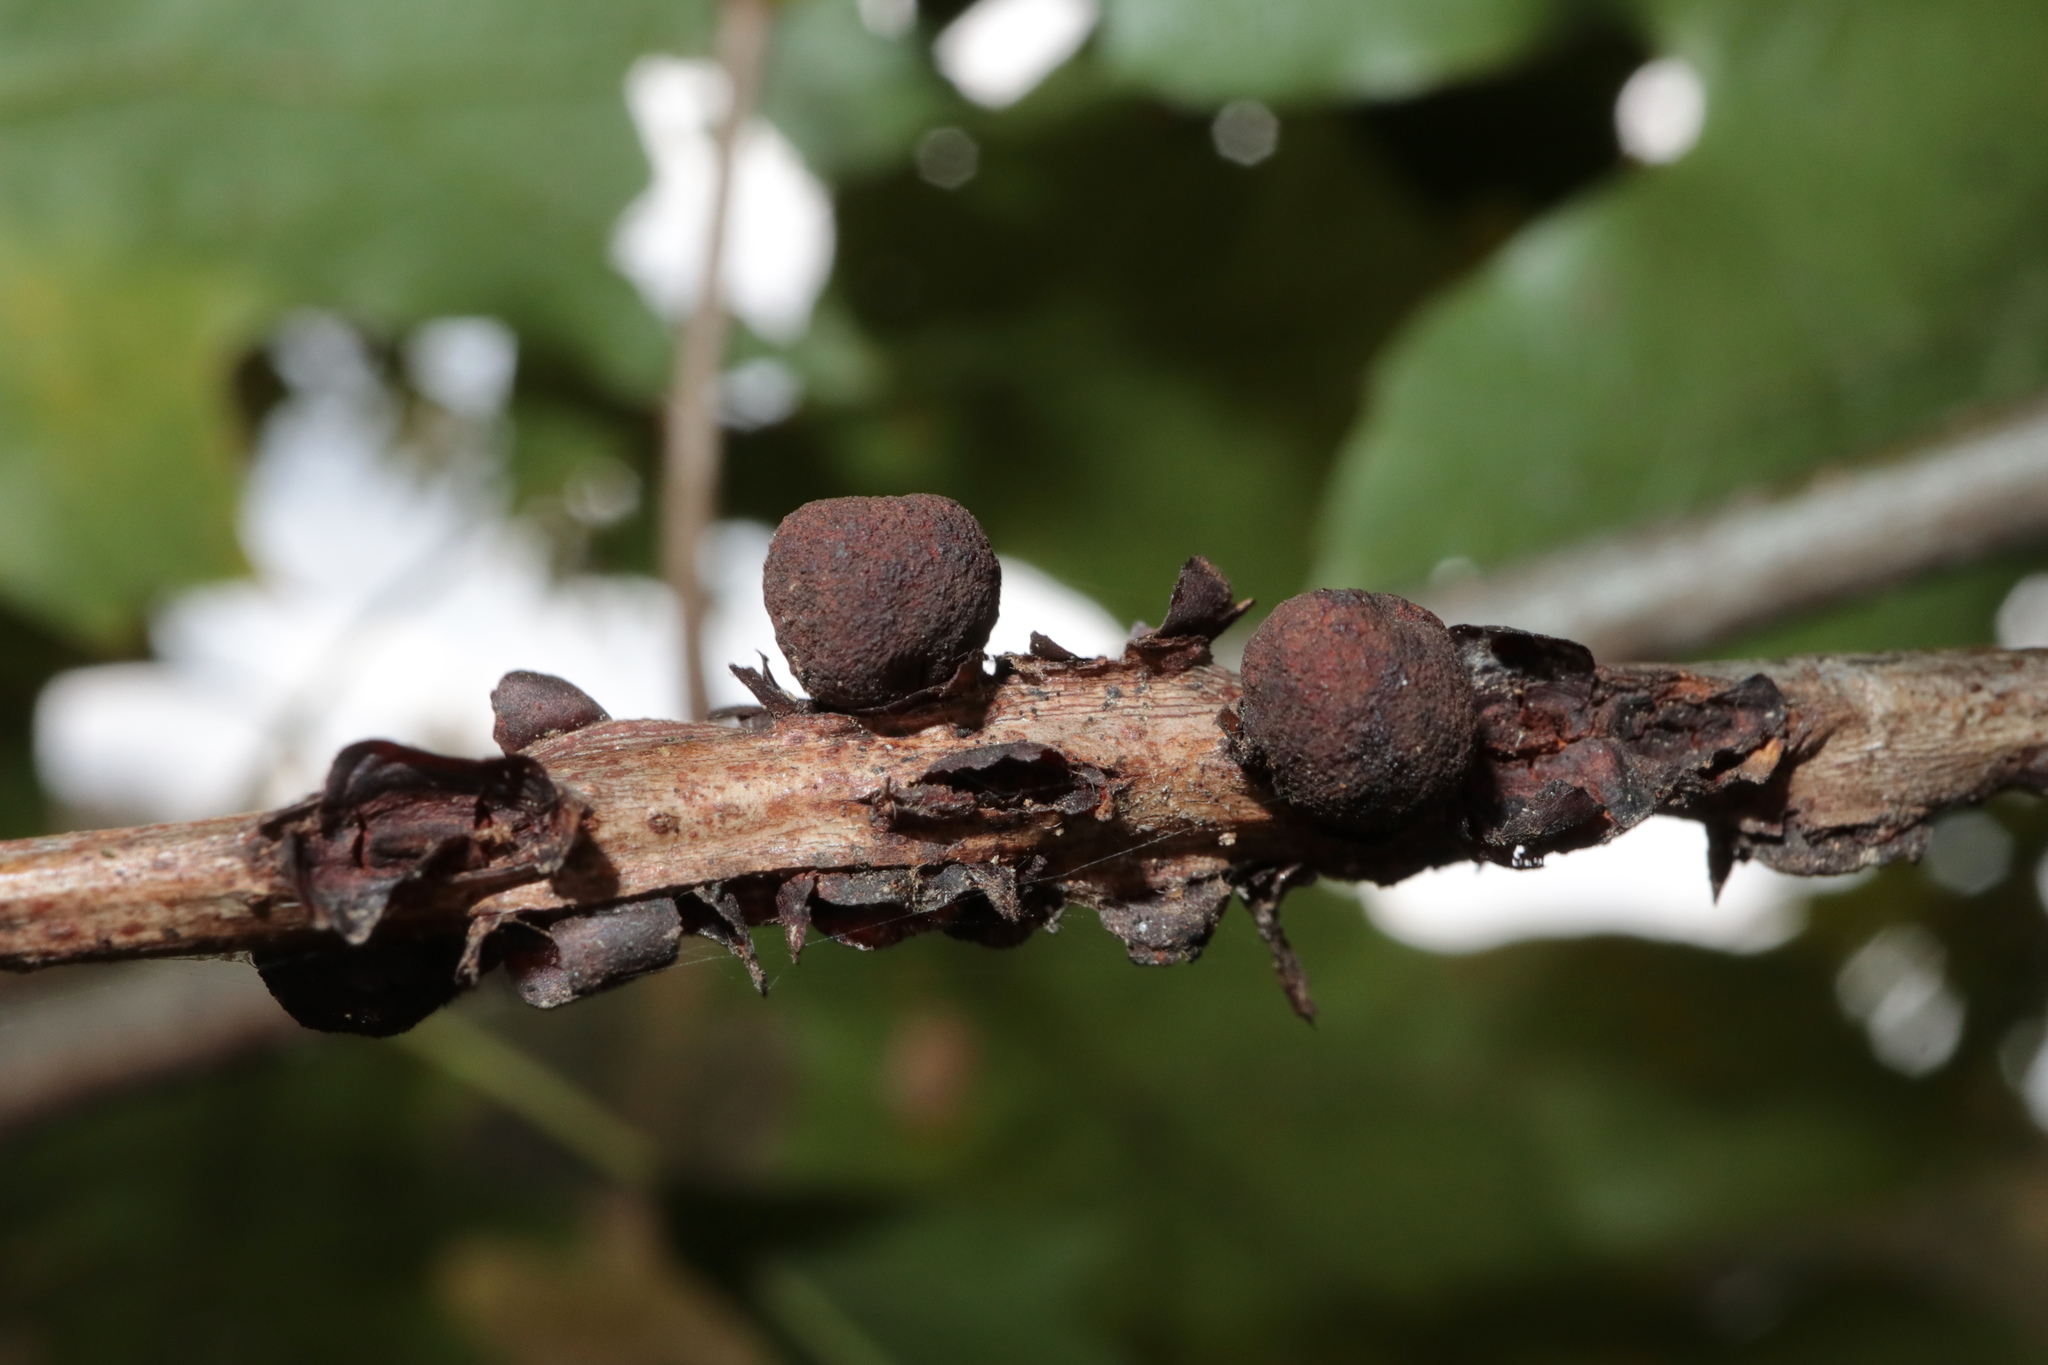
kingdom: Animalia
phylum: Arthropoda
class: Insecta
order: Hymenoptera
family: Cynipidae
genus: Kokkocynips
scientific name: Kokkocynips imbricariae
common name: Banded bullet gall wasp
